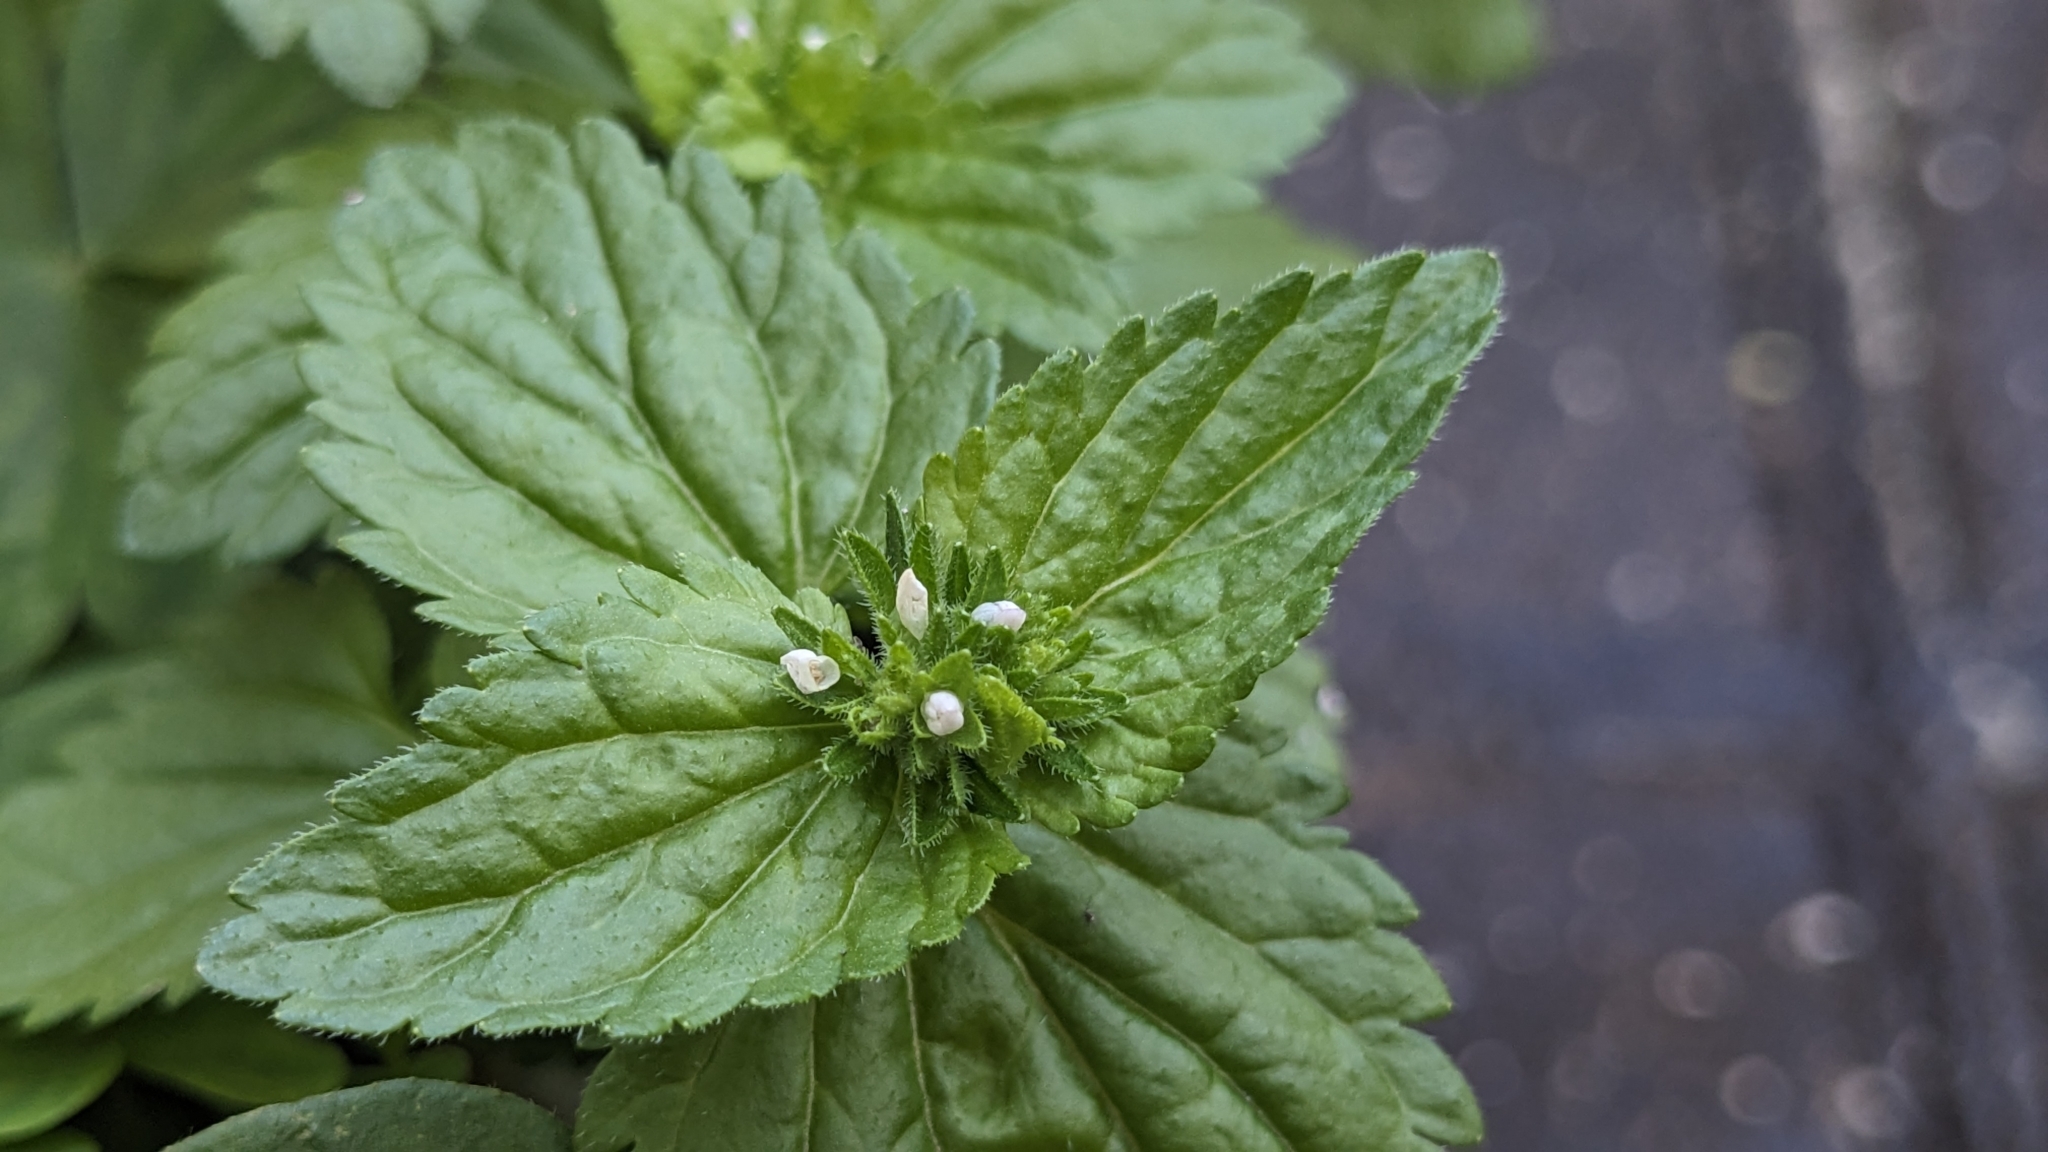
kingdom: Plantae
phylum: Tracheophyta
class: Magnoliopsida
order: Lamiales
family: Plantaginaceae
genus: Veronica
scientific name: Veronica javanica
